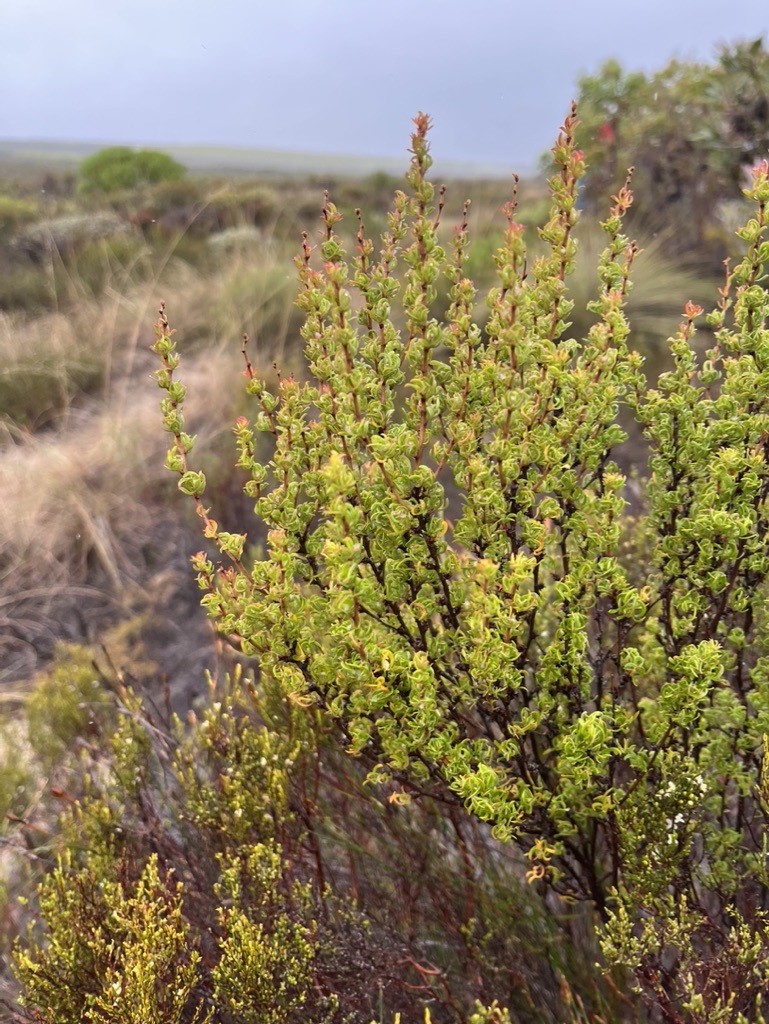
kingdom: Plantae
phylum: Tracheophyta
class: Magnoliopsida
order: Rosales
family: Rosaceae
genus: Cliffortia
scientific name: Cliffortia falcata
